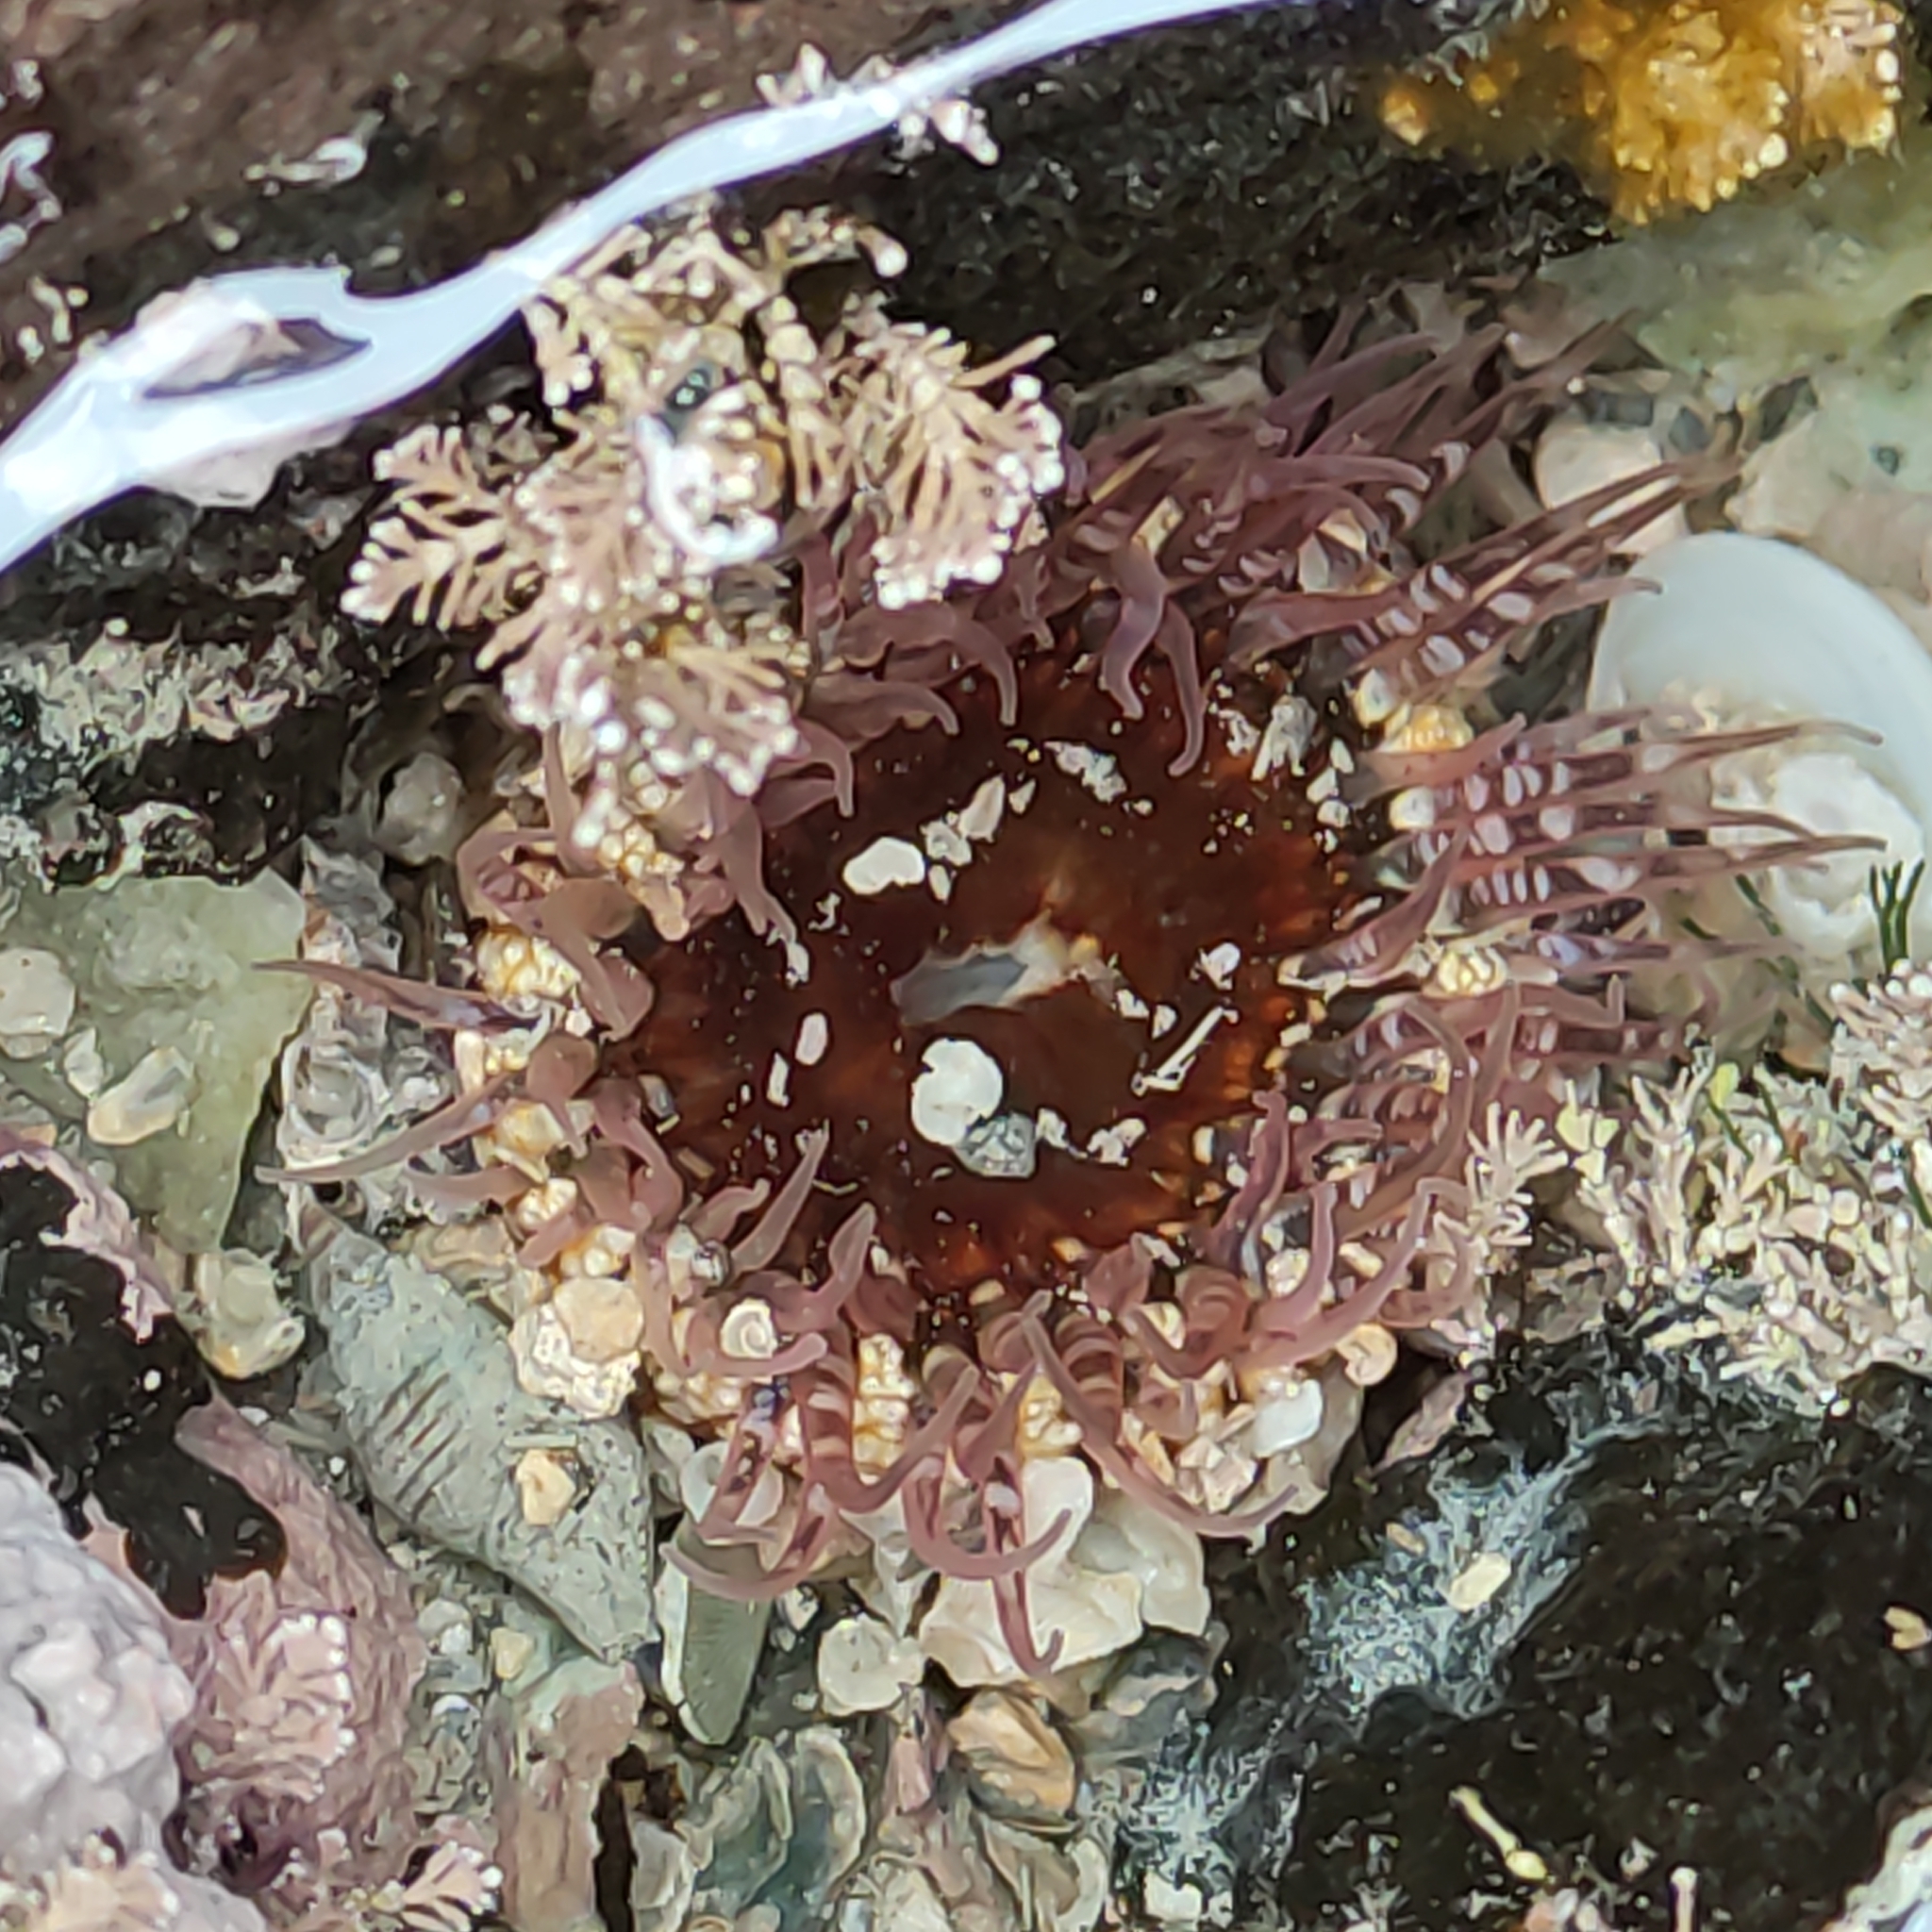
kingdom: Animalia
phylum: Cnidaria
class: Anthozoa
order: Actiniaria
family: Actiniidae
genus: Oulactis
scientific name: Oulactis muscosa
